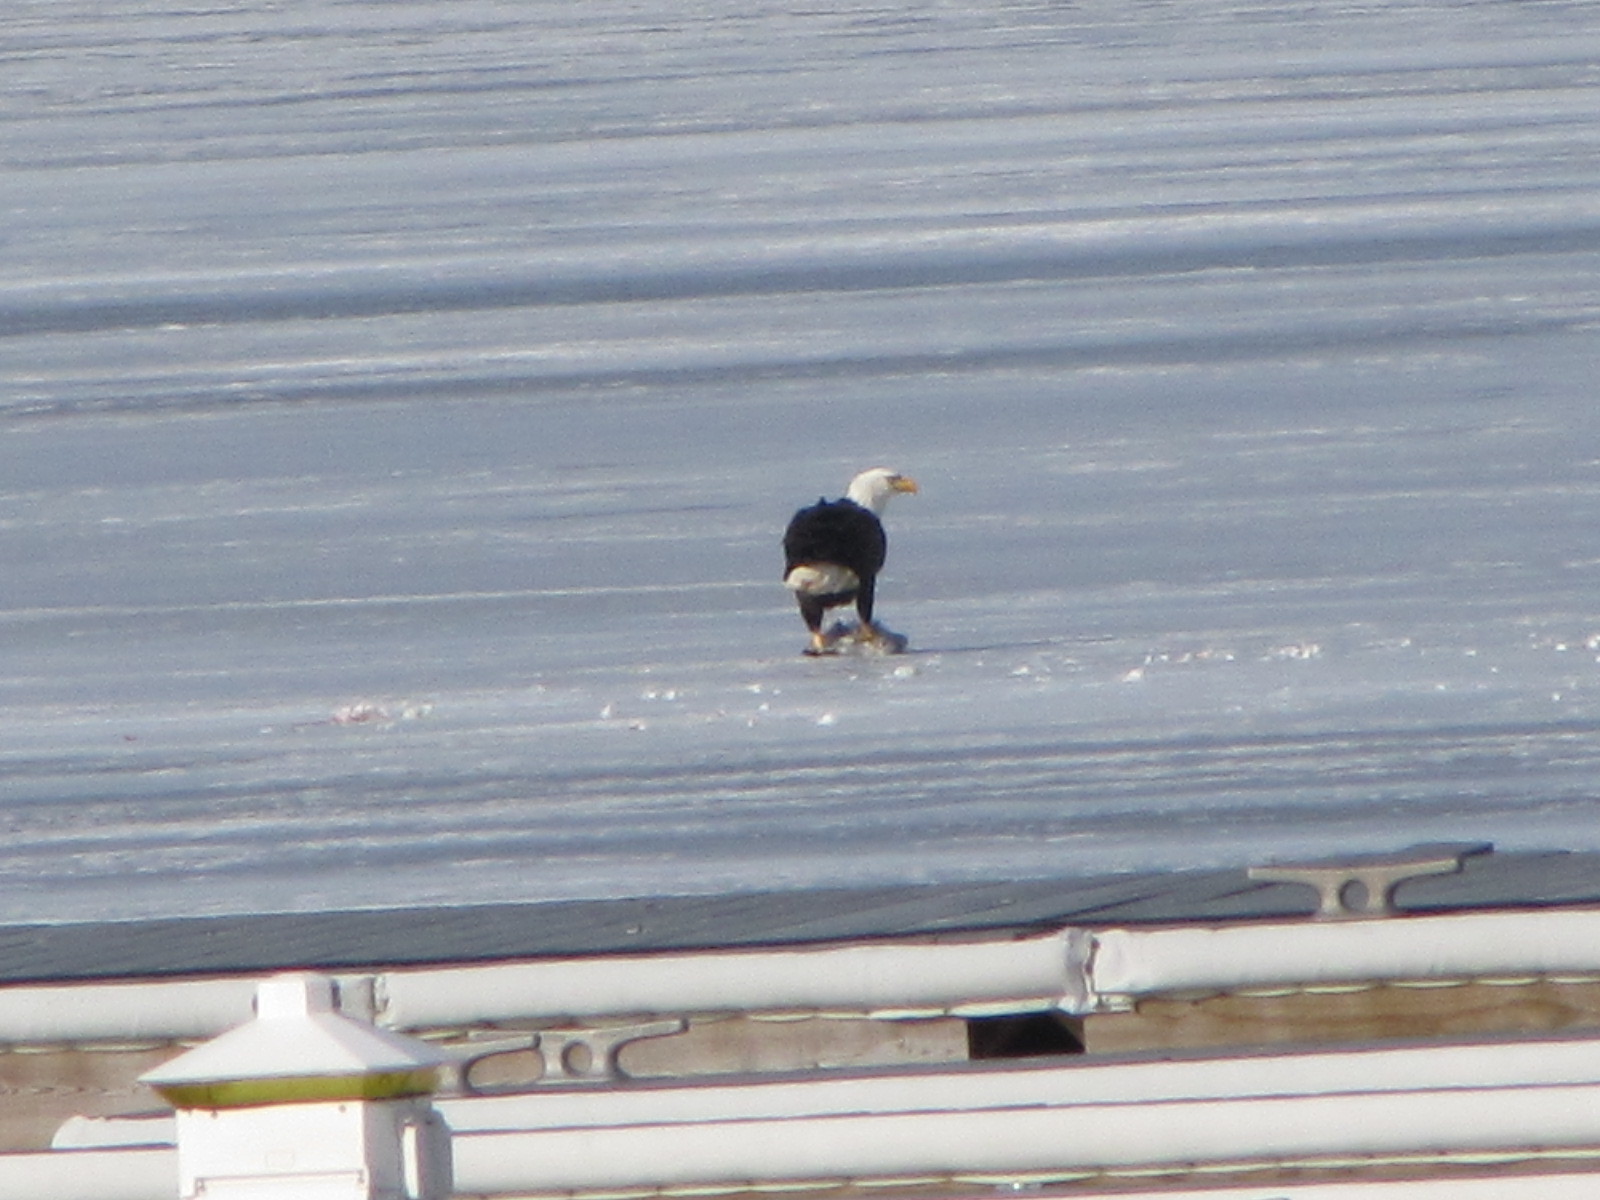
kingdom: Animalia
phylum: Chordata
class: Aves
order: Accipitriformes
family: Accipitridae
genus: Haliaeetus
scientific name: Haliaeetus leucocephalus
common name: Bald eagle
